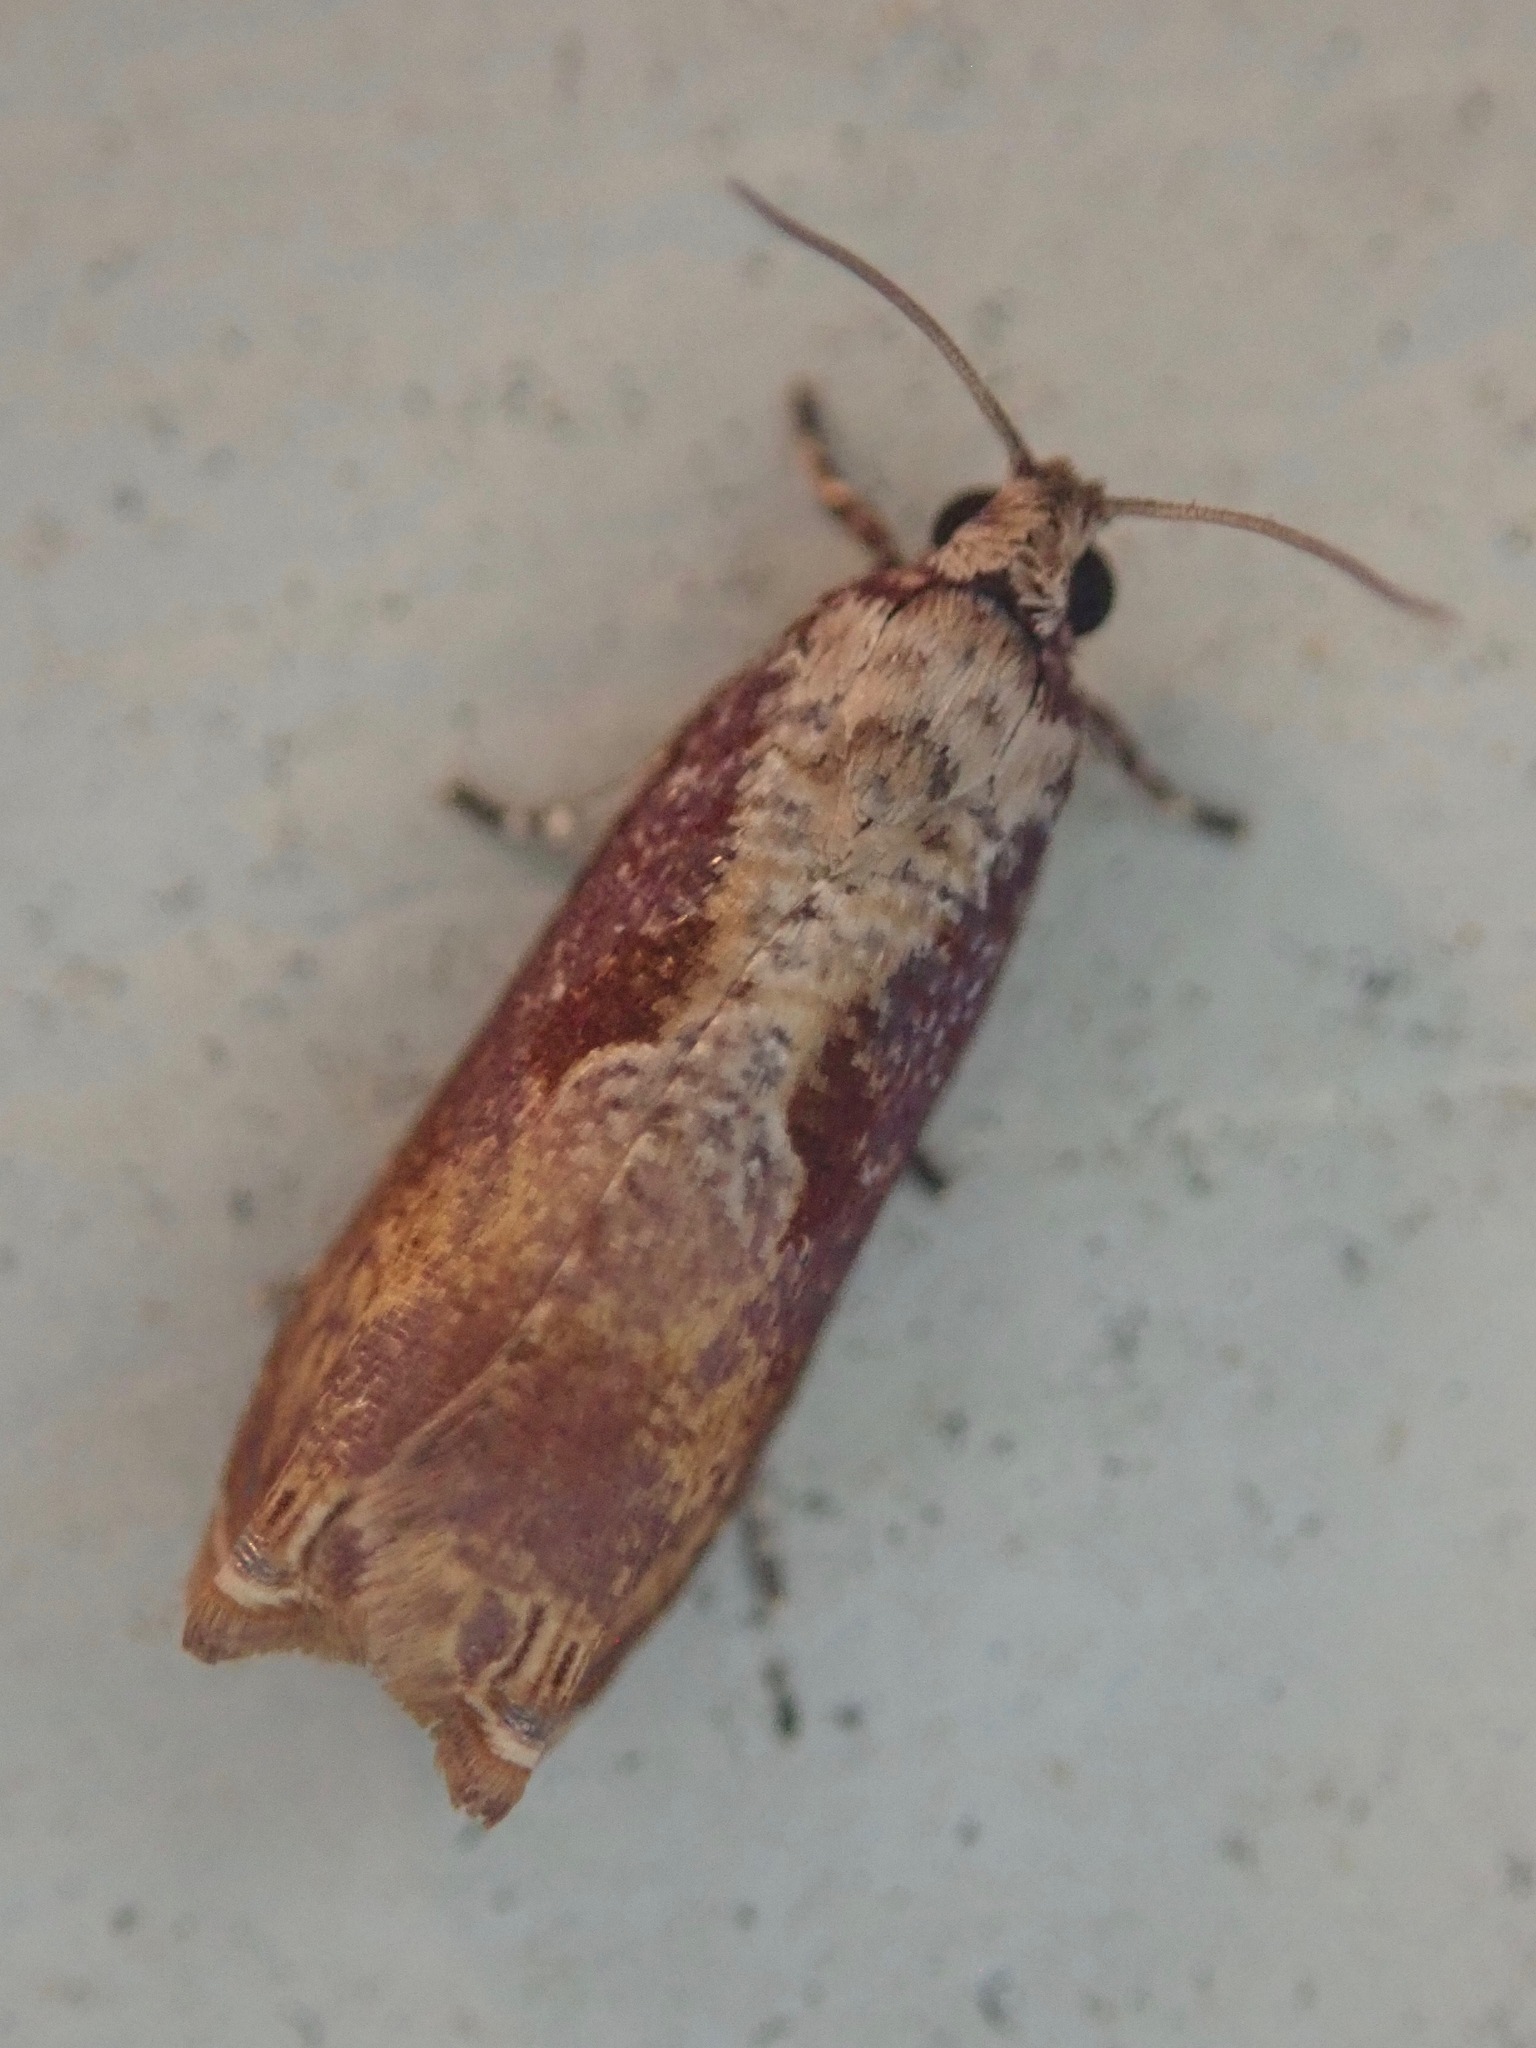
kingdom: Animalia
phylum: Arthropoda
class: Insecta
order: Lepidoptera
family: Tortricidae
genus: Episimus
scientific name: Episimus tyrius
